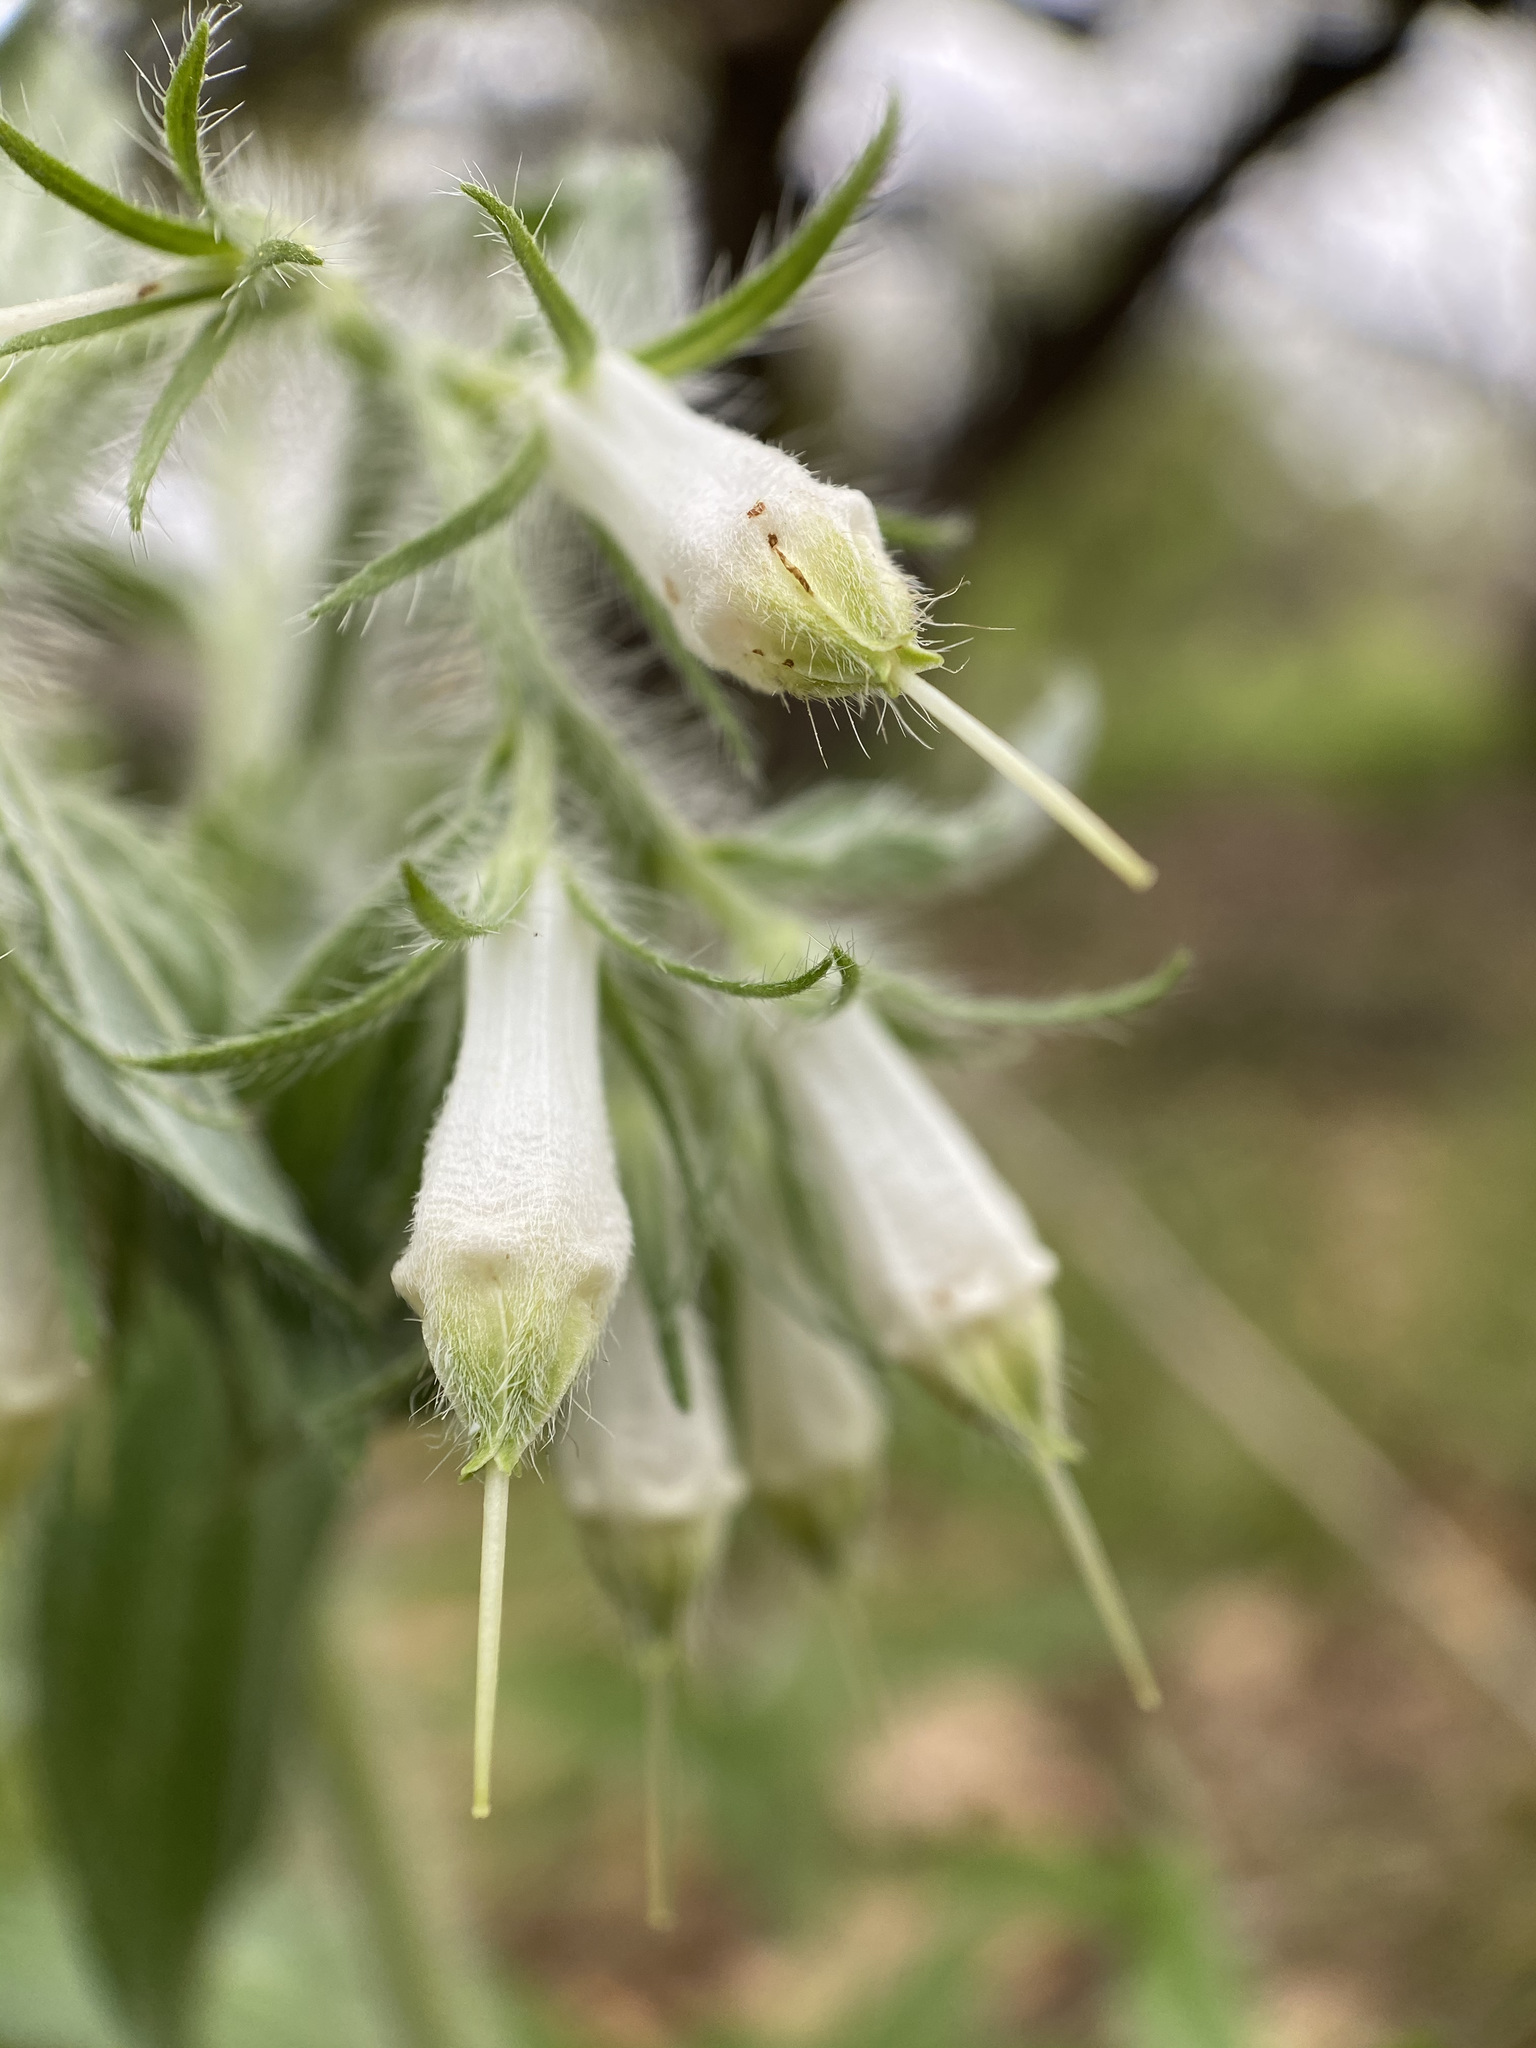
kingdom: Plantae
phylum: Tracheophyta
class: Magnoliopsida
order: Boraginales
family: Boraginaceae
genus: Lithospermum
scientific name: Lithospermum caroliniense
